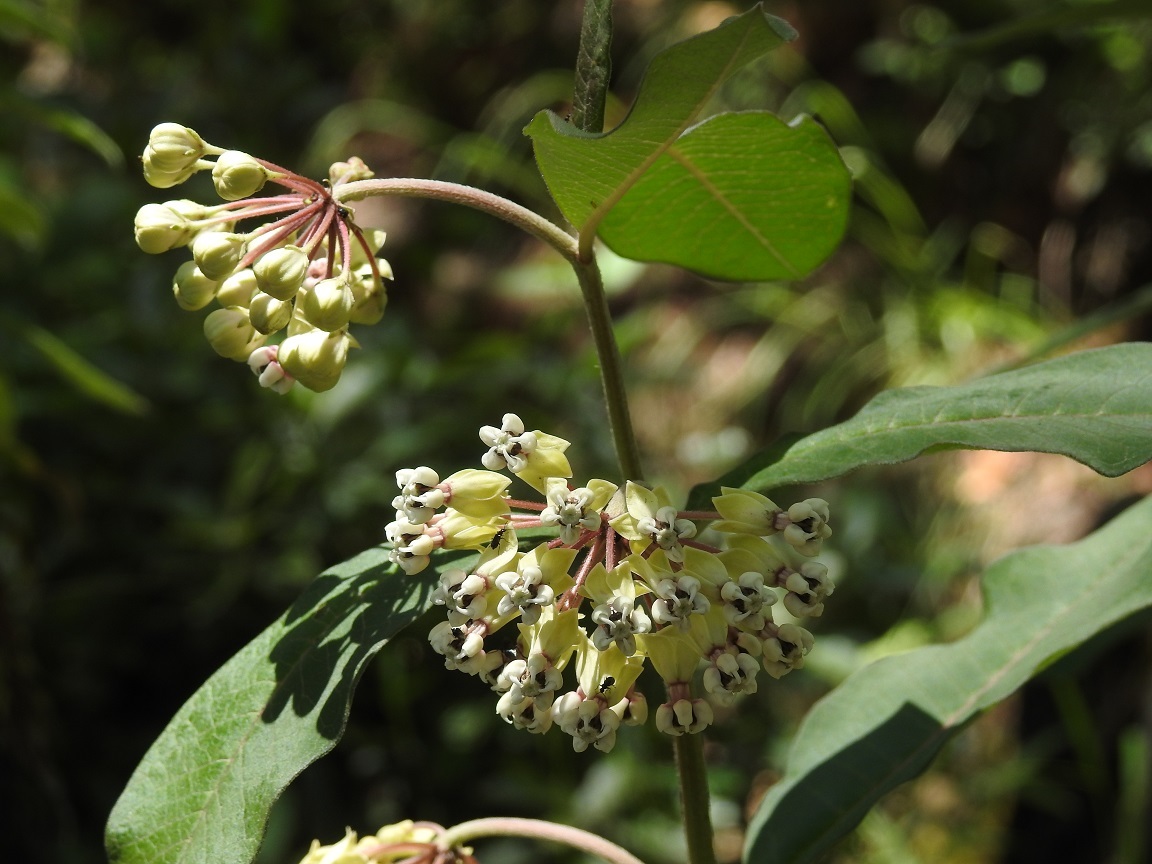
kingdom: Plantae
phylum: Tracheophyta
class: Magnoliopsida
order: Gentianales
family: Apocynaceae
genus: Asclepias
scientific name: Asclepias similis
